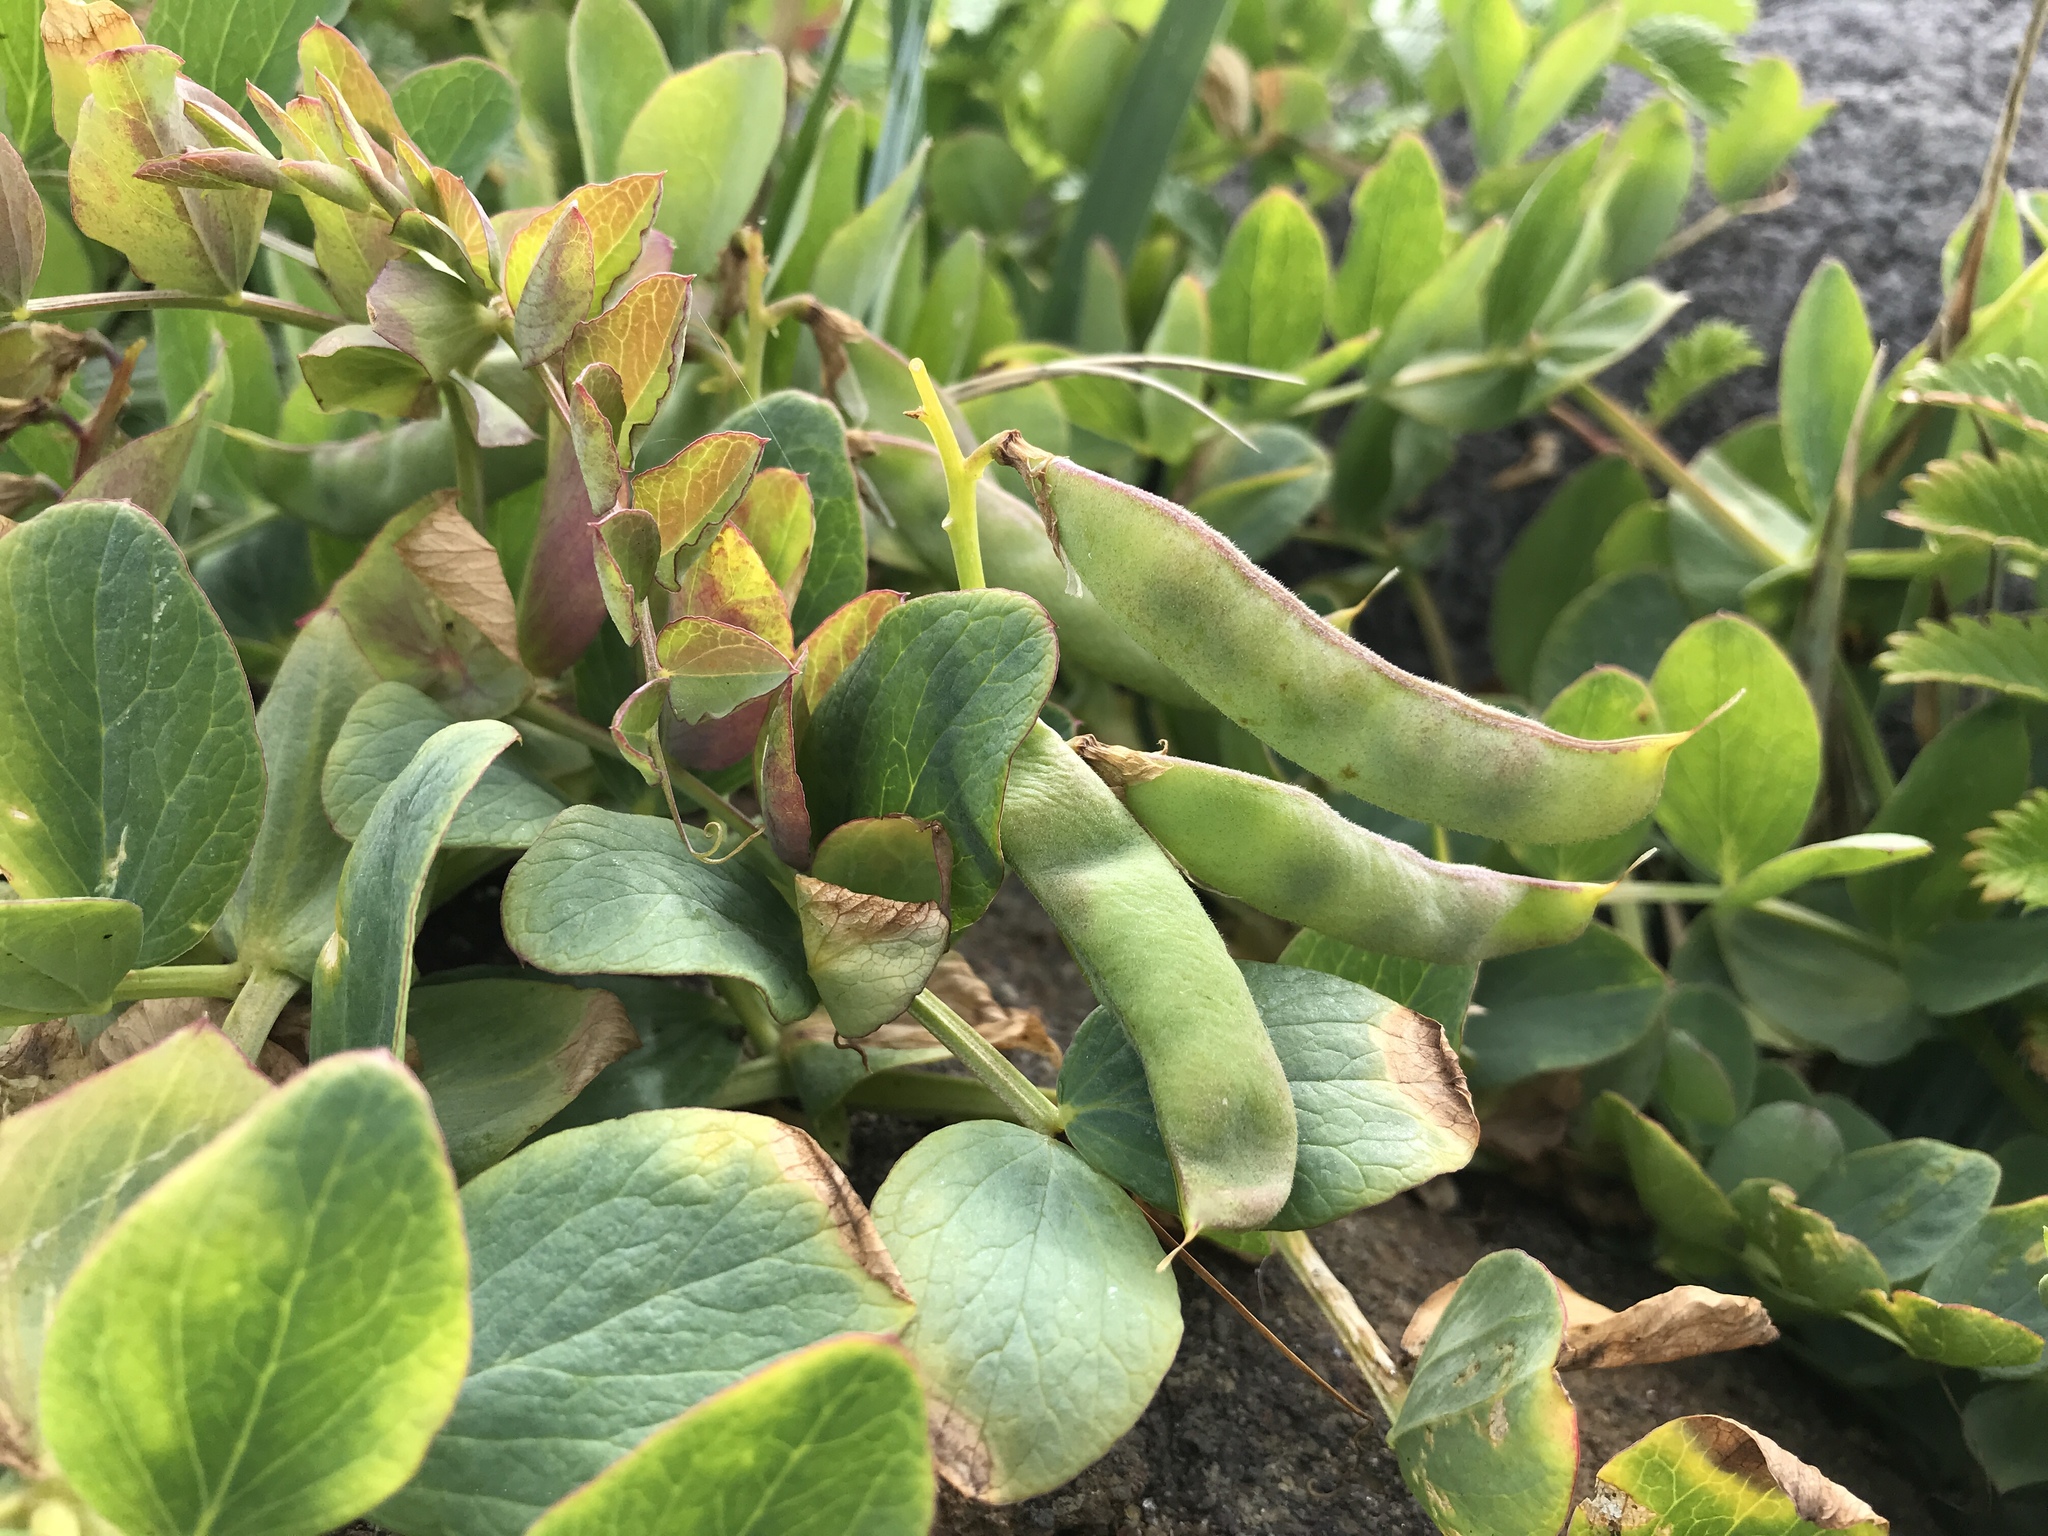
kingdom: Plantae
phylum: Tracheophyta
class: Magnoliopsida
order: Fabales
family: Fabaceae
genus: Lathyrus
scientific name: Lathyrus japonicus
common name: Sea pea
